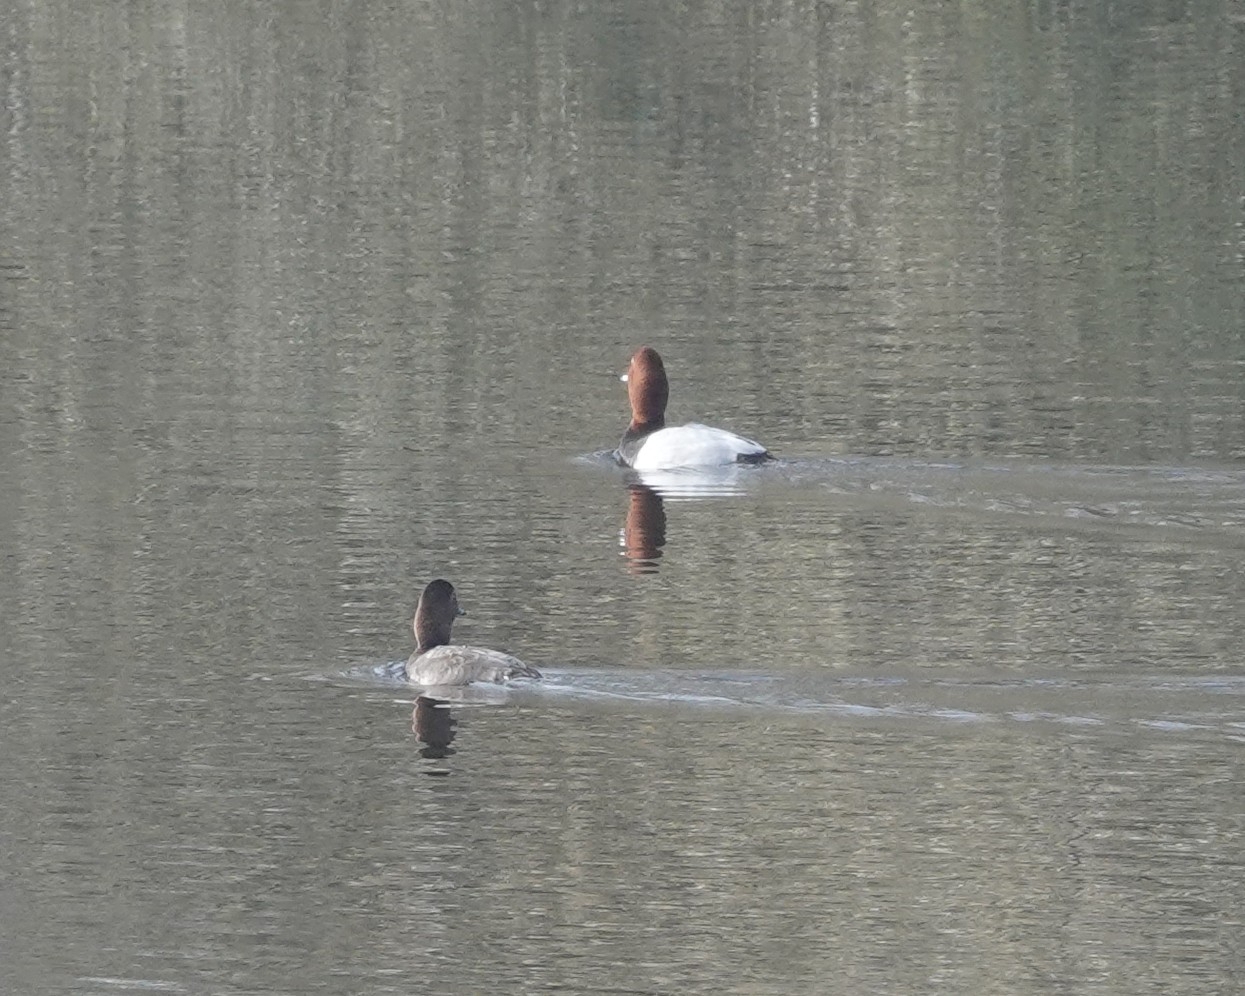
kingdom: Animalia
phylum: Chordata
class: Aves
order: Anseriformes
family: Anatidae
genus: Aythya
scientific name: Aythya ferina
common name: Common pochard
